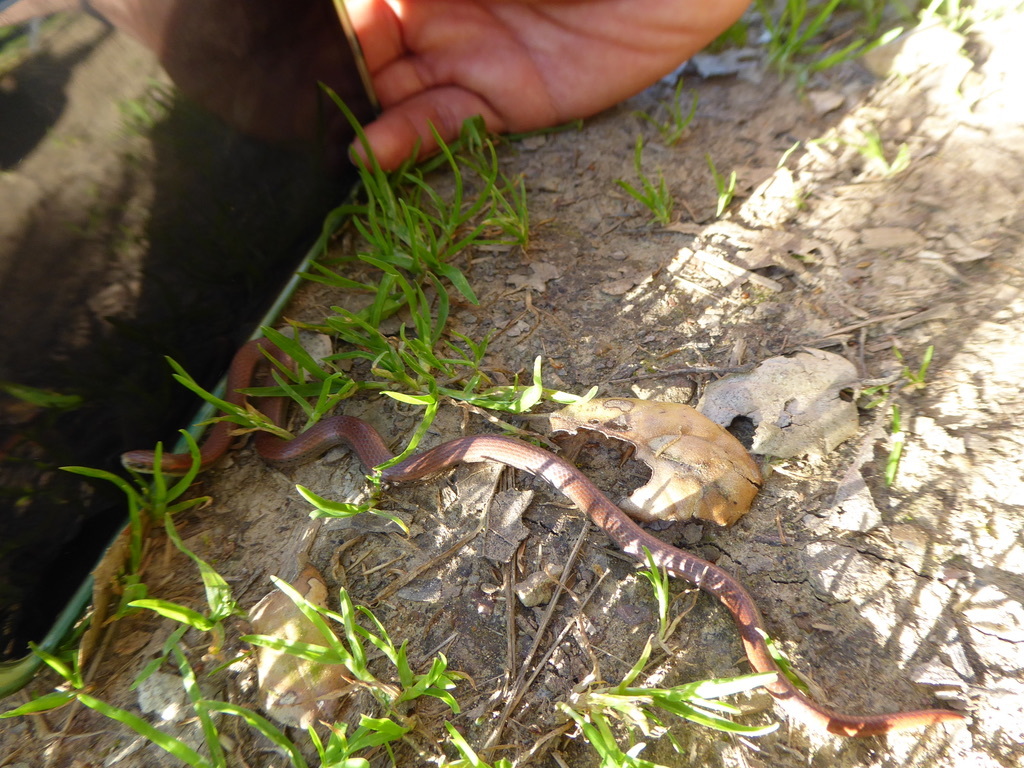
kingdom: Animalia
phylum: Chordata
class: Squamata
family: Colubridae
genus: Contia
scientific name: Contia tenuis
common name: Sharptail snake
